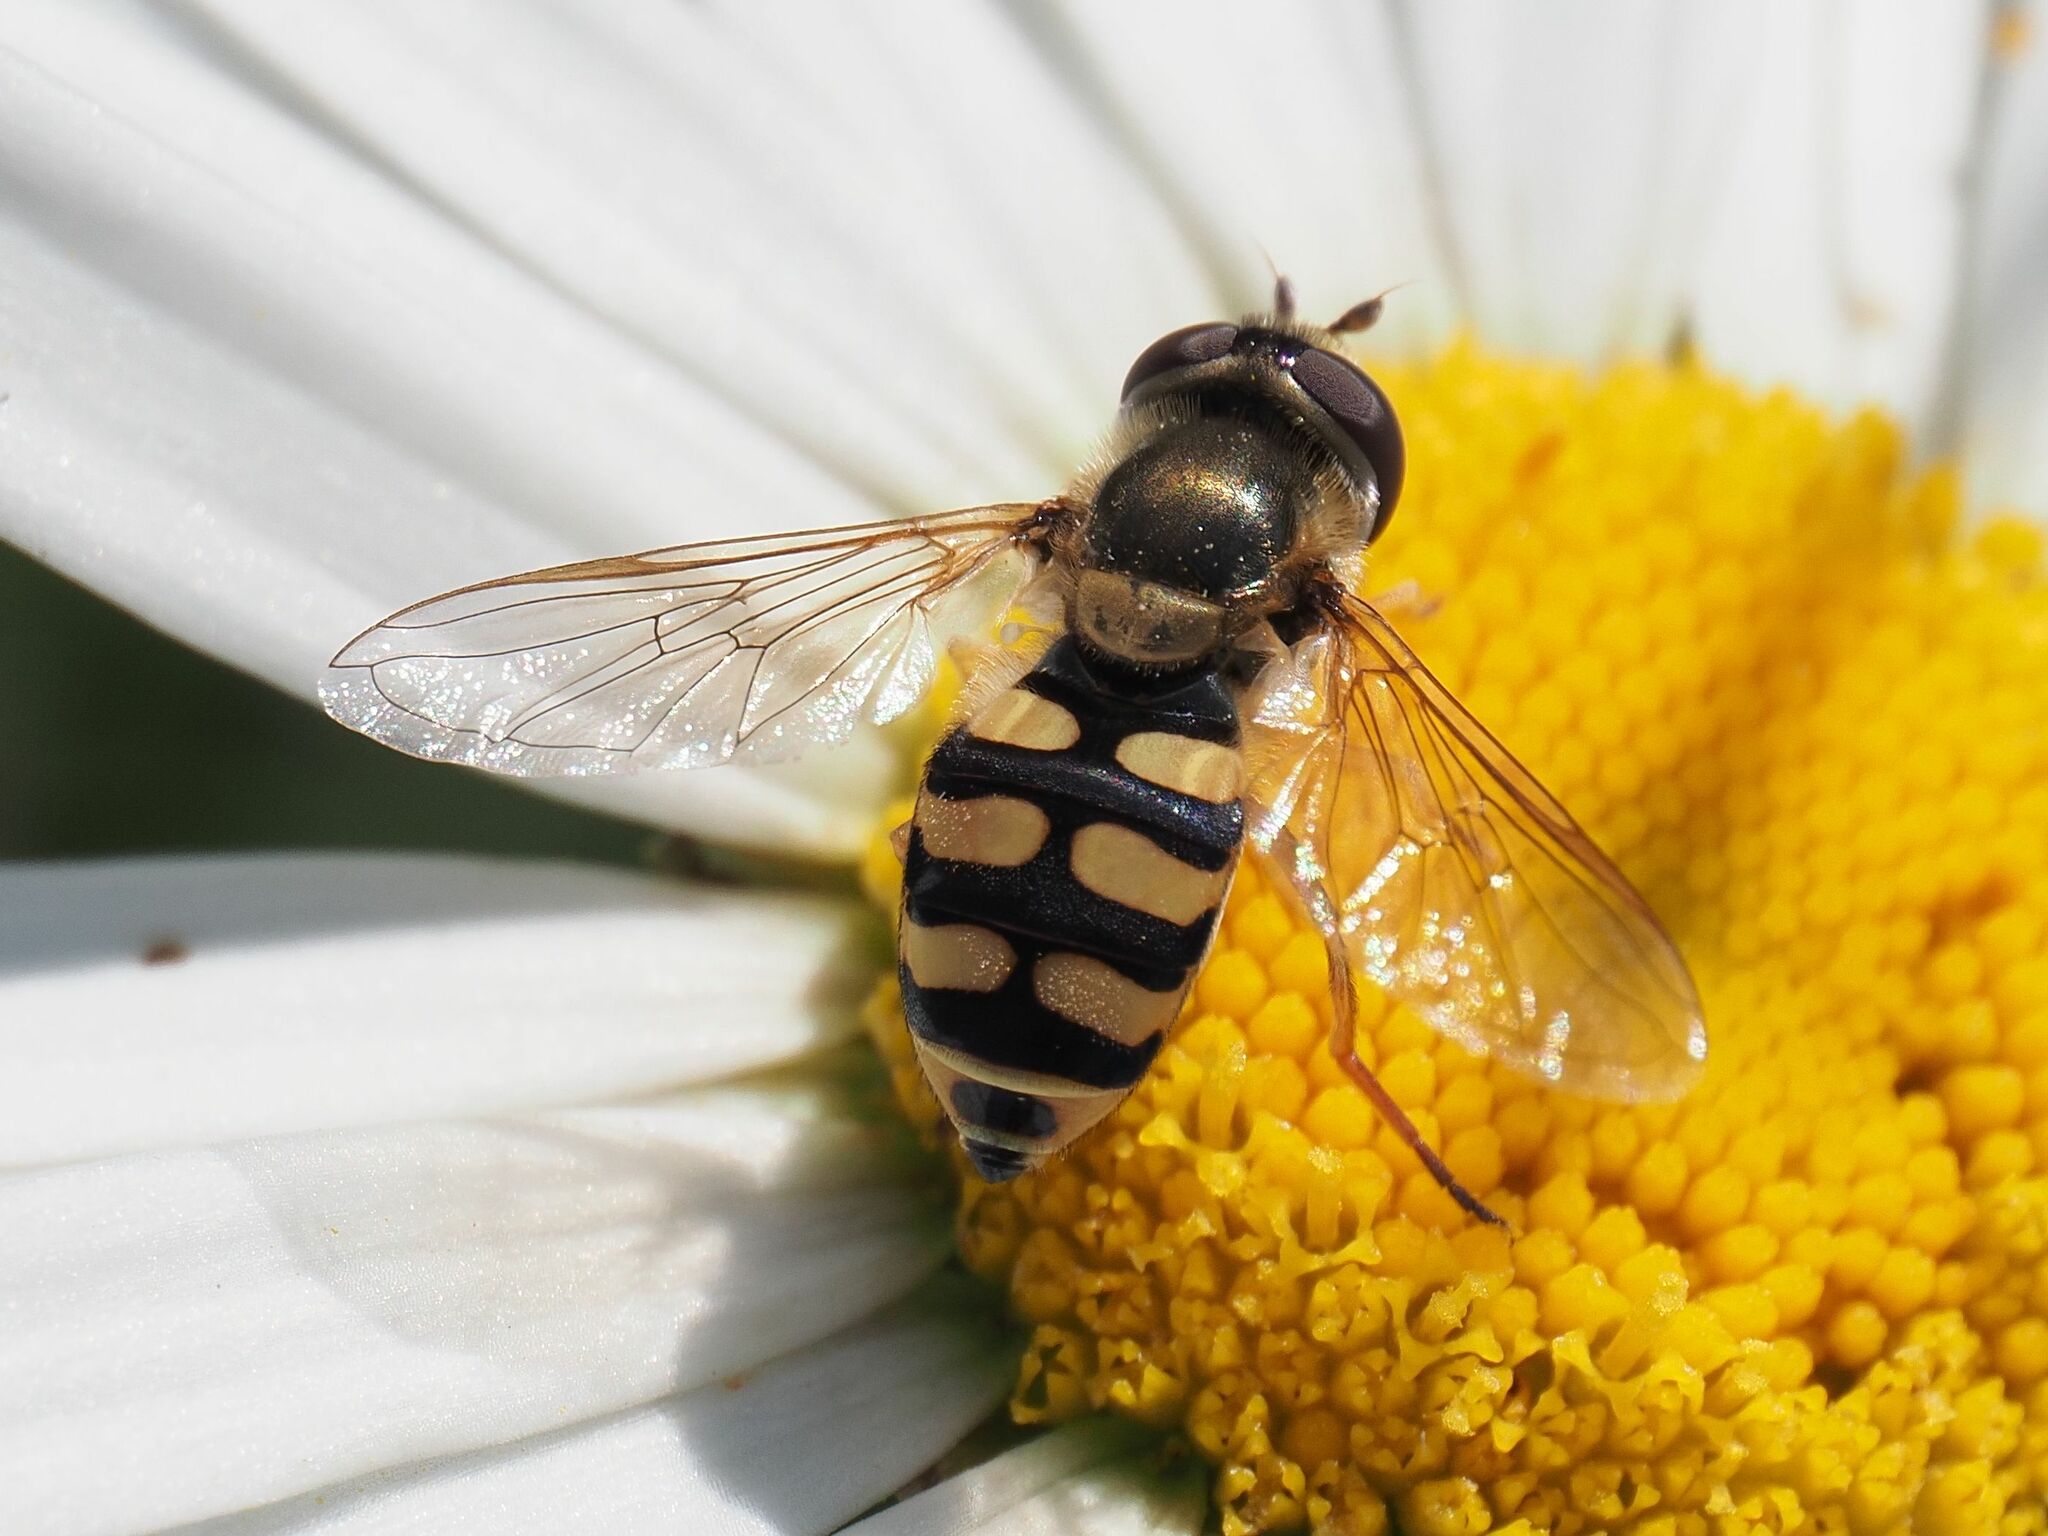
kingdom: Animalia
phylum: Arthropoda
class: Insecta
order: Diptera
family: Syrphidae
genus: Eupeodes
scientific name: Eupeodes corollae
